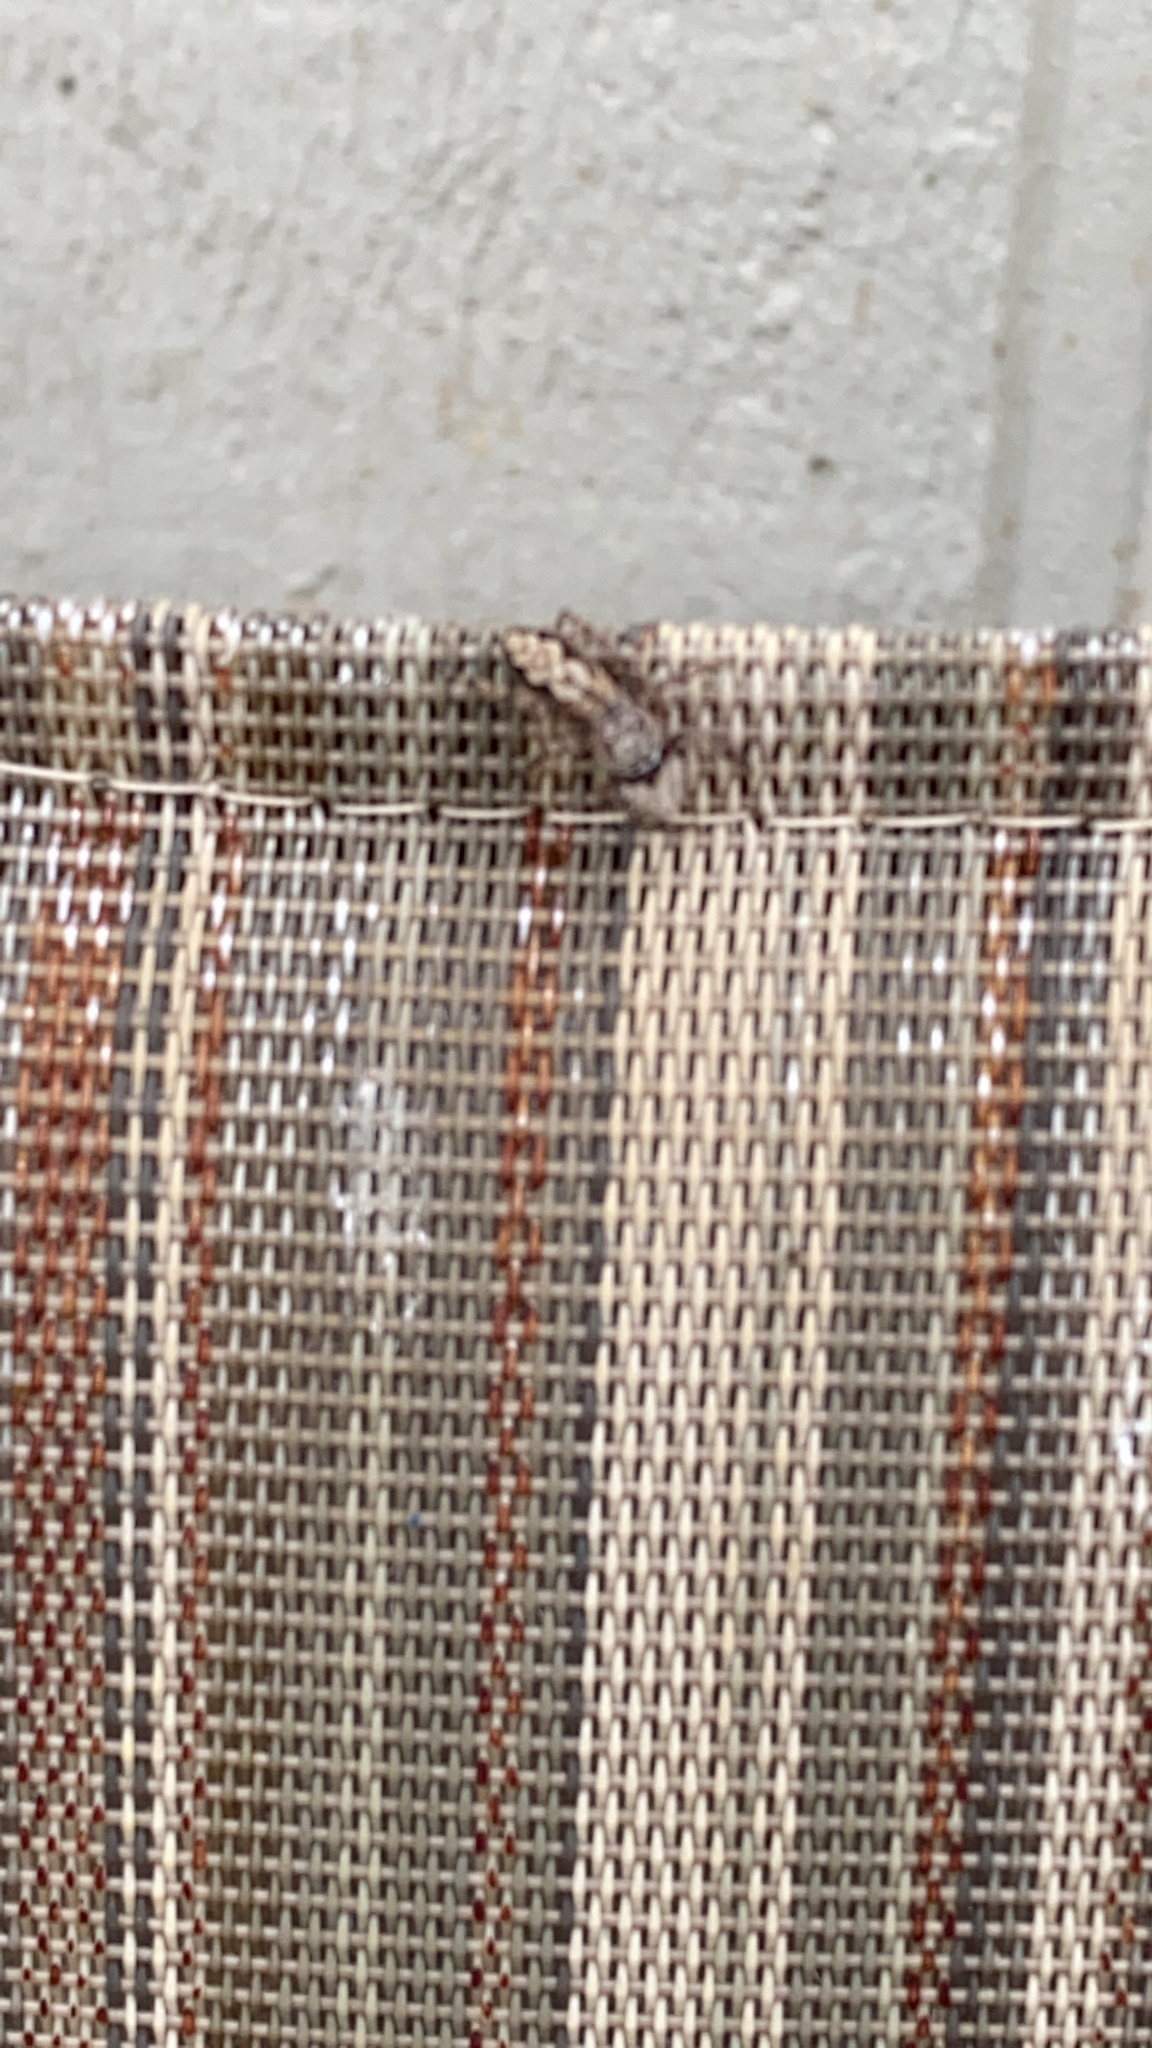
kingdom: Animalia
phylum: Arthropoda
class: Arachnida
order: Araneae
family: Salticidae
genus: Platycryptus
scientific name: Platycryptus undatus
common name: Tan jumping spider
